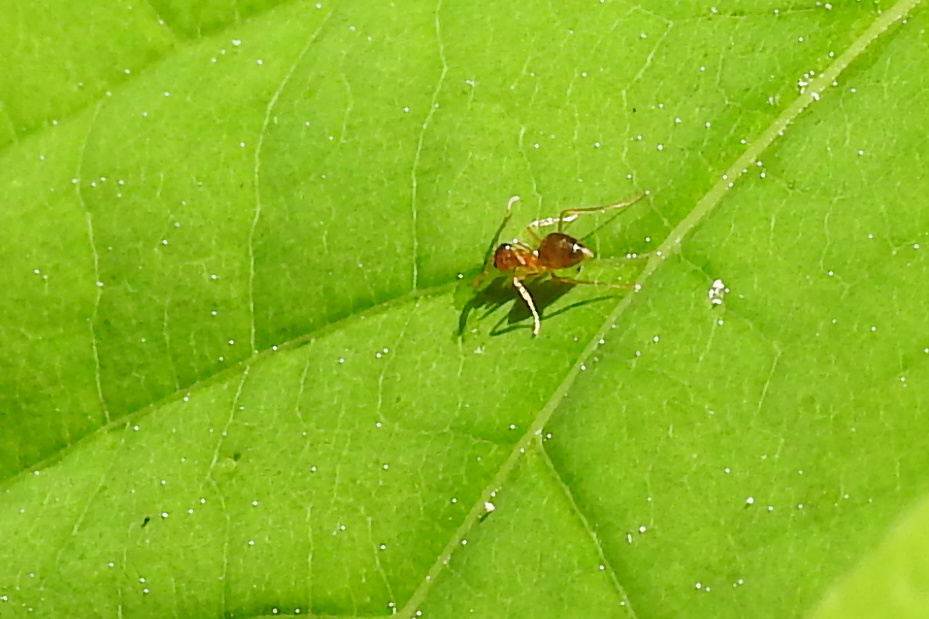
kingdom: Animalia
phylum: Arthropoda
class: Insecta
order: Hymenoptera
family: Formicidae
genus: Prenolepis
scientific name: Prenolepis imparis
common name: Small honey ant
